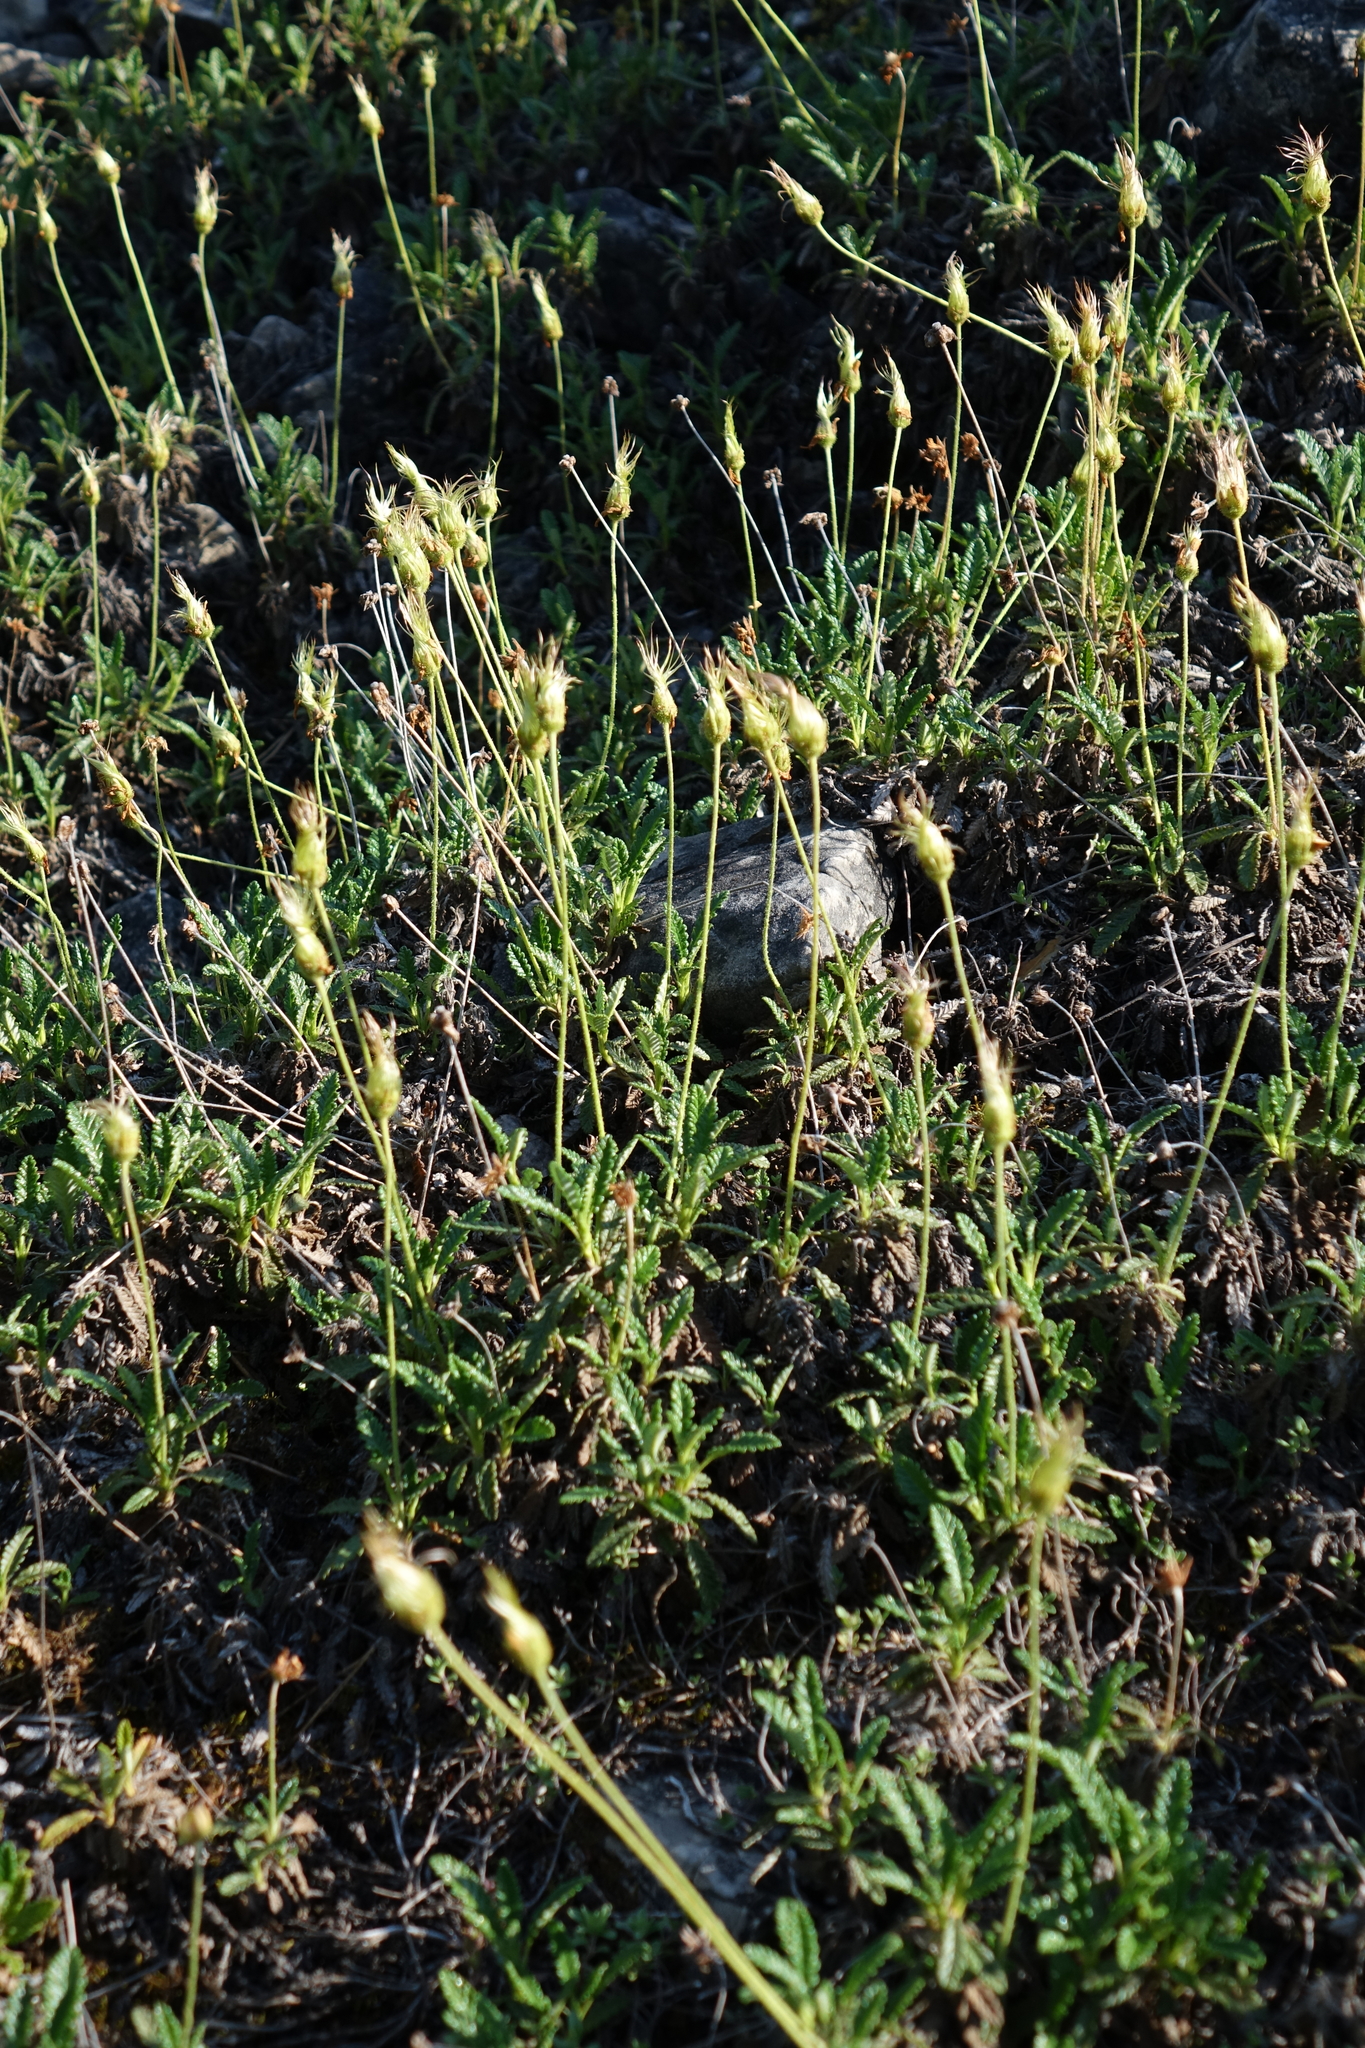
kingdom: Plantae
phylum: Tracheophyta
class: Magnoliopsida
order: Rosales
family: Rosaceae
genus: Dryas
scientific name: Dryas octopetala
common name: Eight-petal mountain-avens
